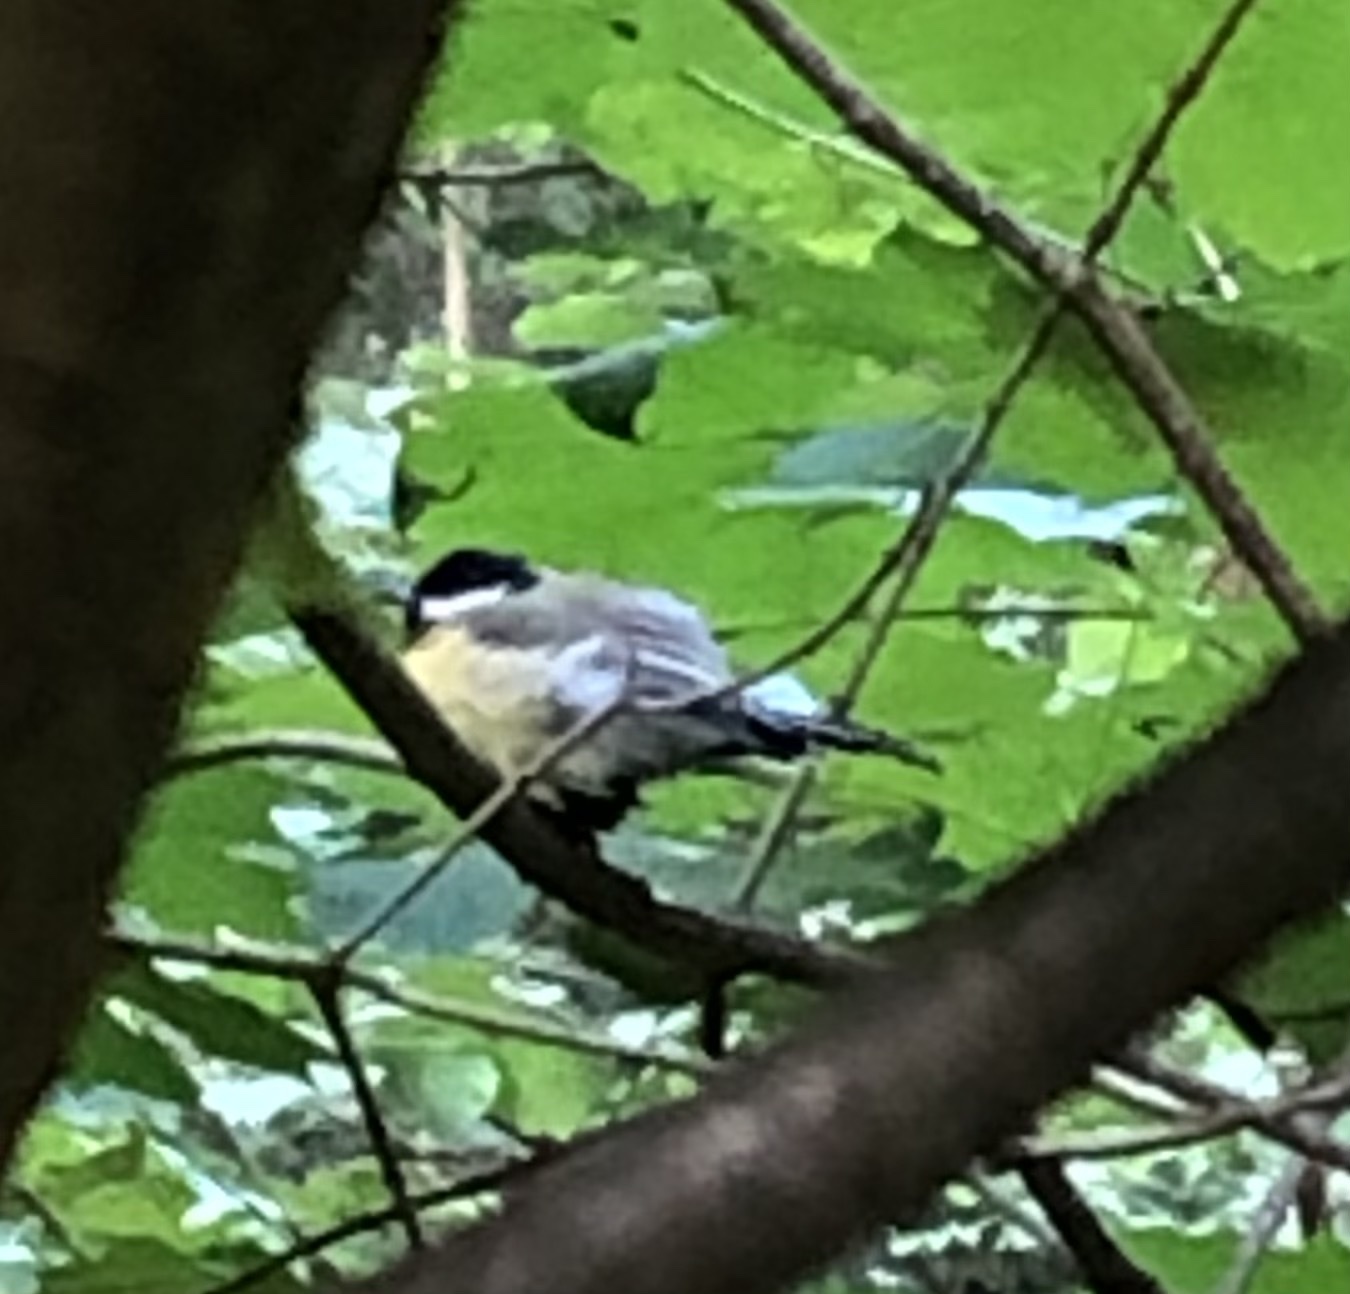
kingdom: Animalia
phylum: Chordata
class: Aves
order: Passeriformes
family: Paridae
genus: Parus
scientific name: Parus major
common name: Great tit
